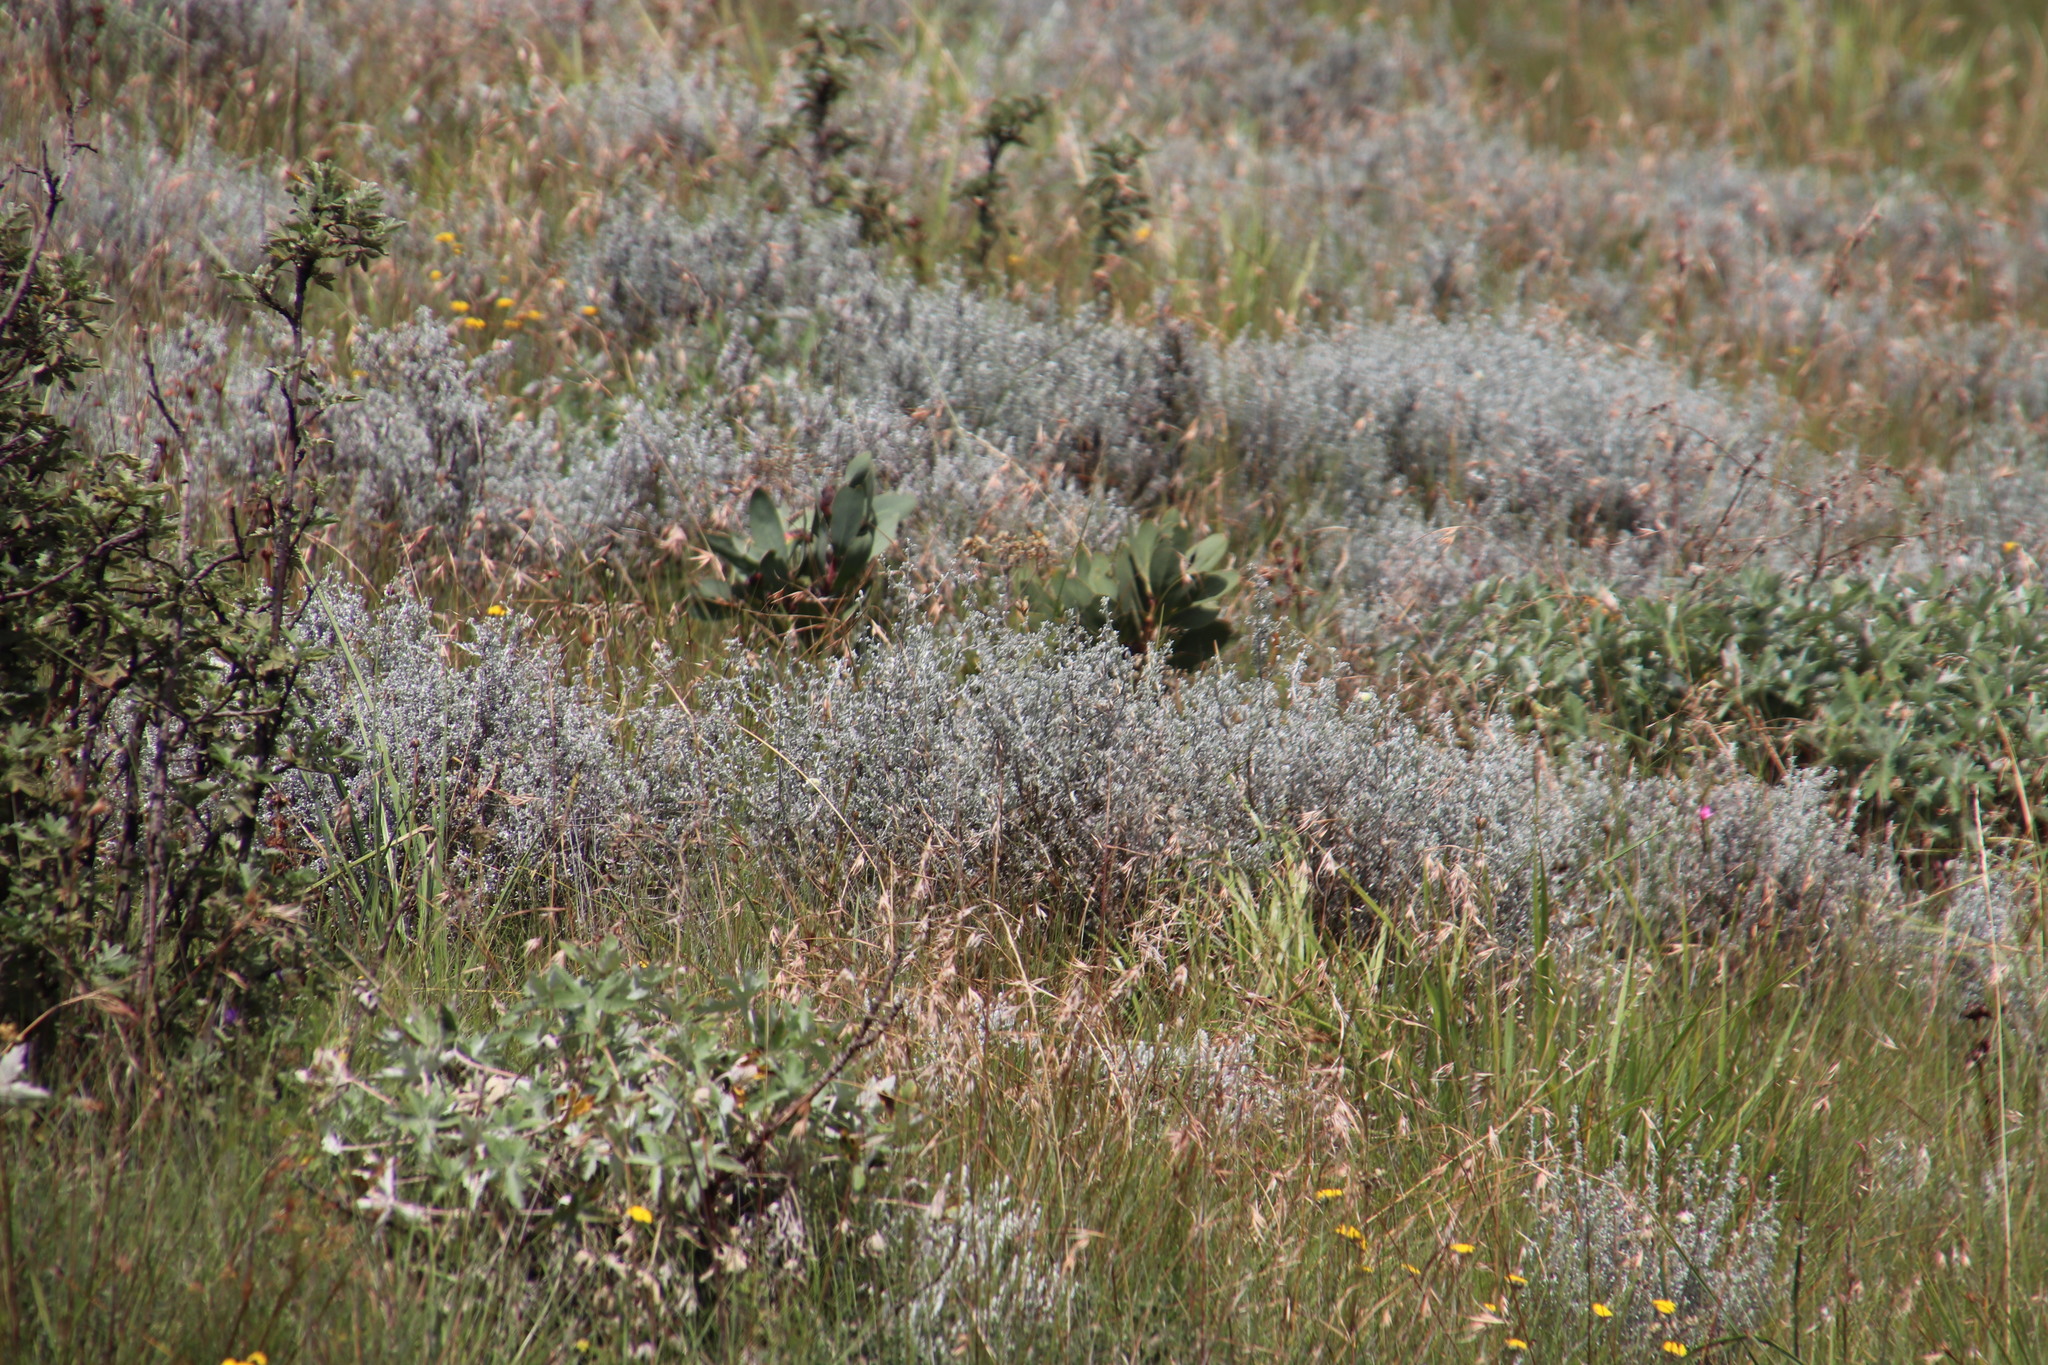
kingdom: Plantae
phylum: Tracheophyta
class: Magnoliopsida
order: Proteales
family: Proteaceae
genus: Protea
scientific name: Protea caffra
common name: Common sugarbush
